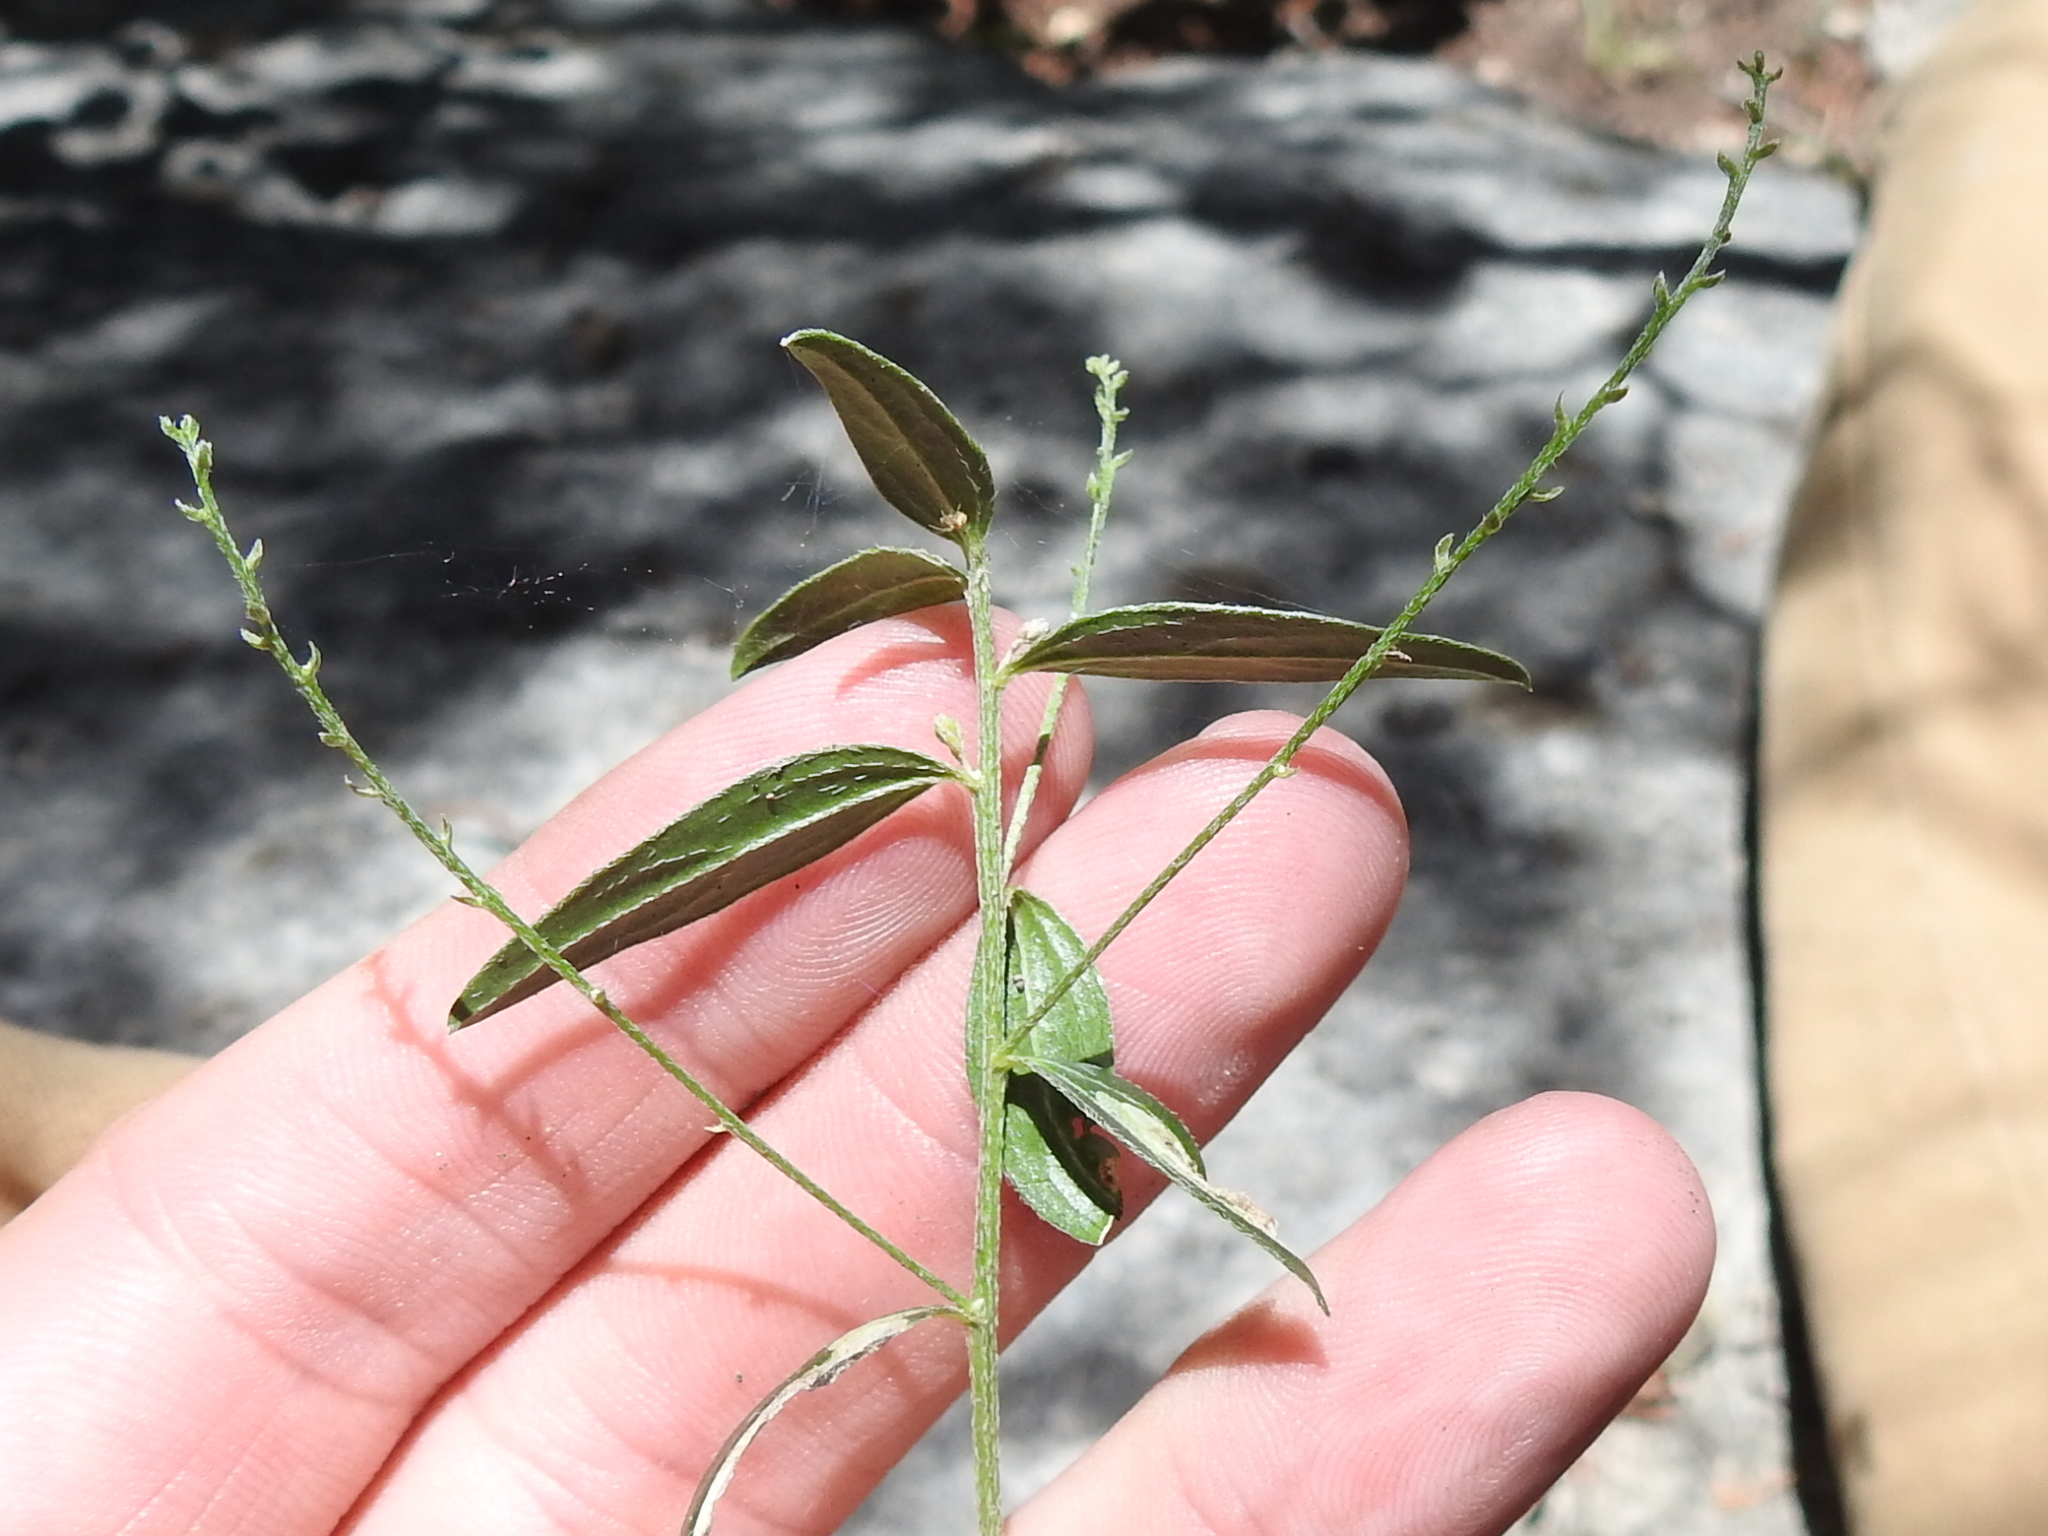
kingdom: Plantae
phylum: Tracheophyta
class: Magnoliopsida
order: Malpighiales
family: Euphorbiaceae
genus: Ditaxis
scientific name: Ditaxis simulans
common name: Plateau silverbush
